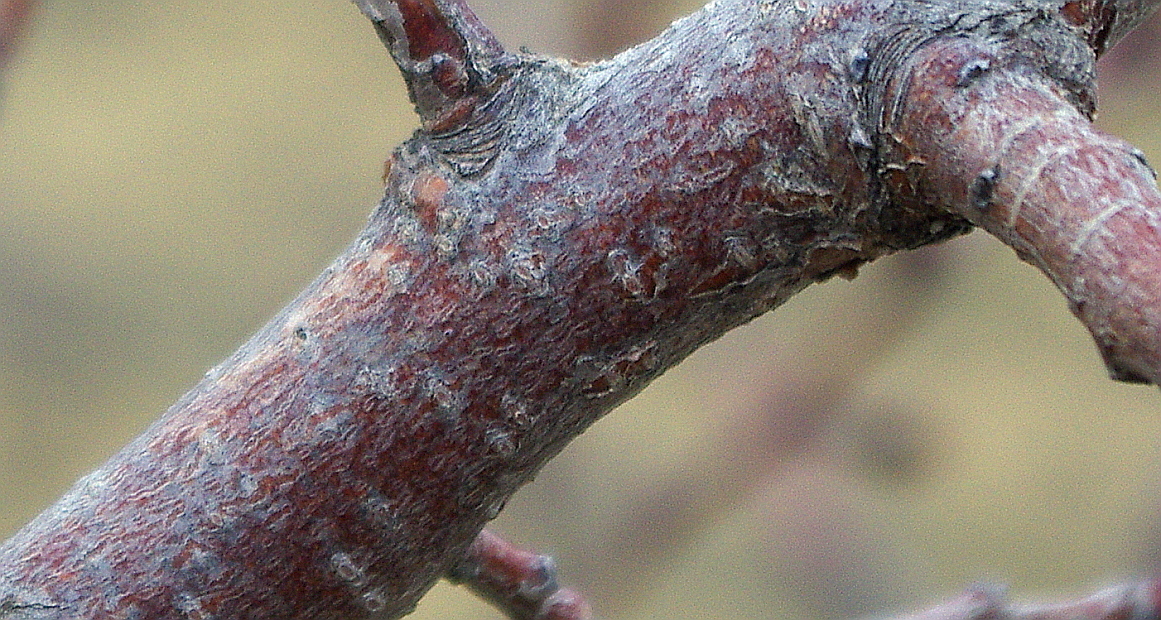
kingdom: Plantae
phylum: Tracheophyta
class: Magnoliopsida
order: Rosales
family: Rosaceae
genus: Prunus
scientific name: Prunus armeniaca
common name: Apricot
